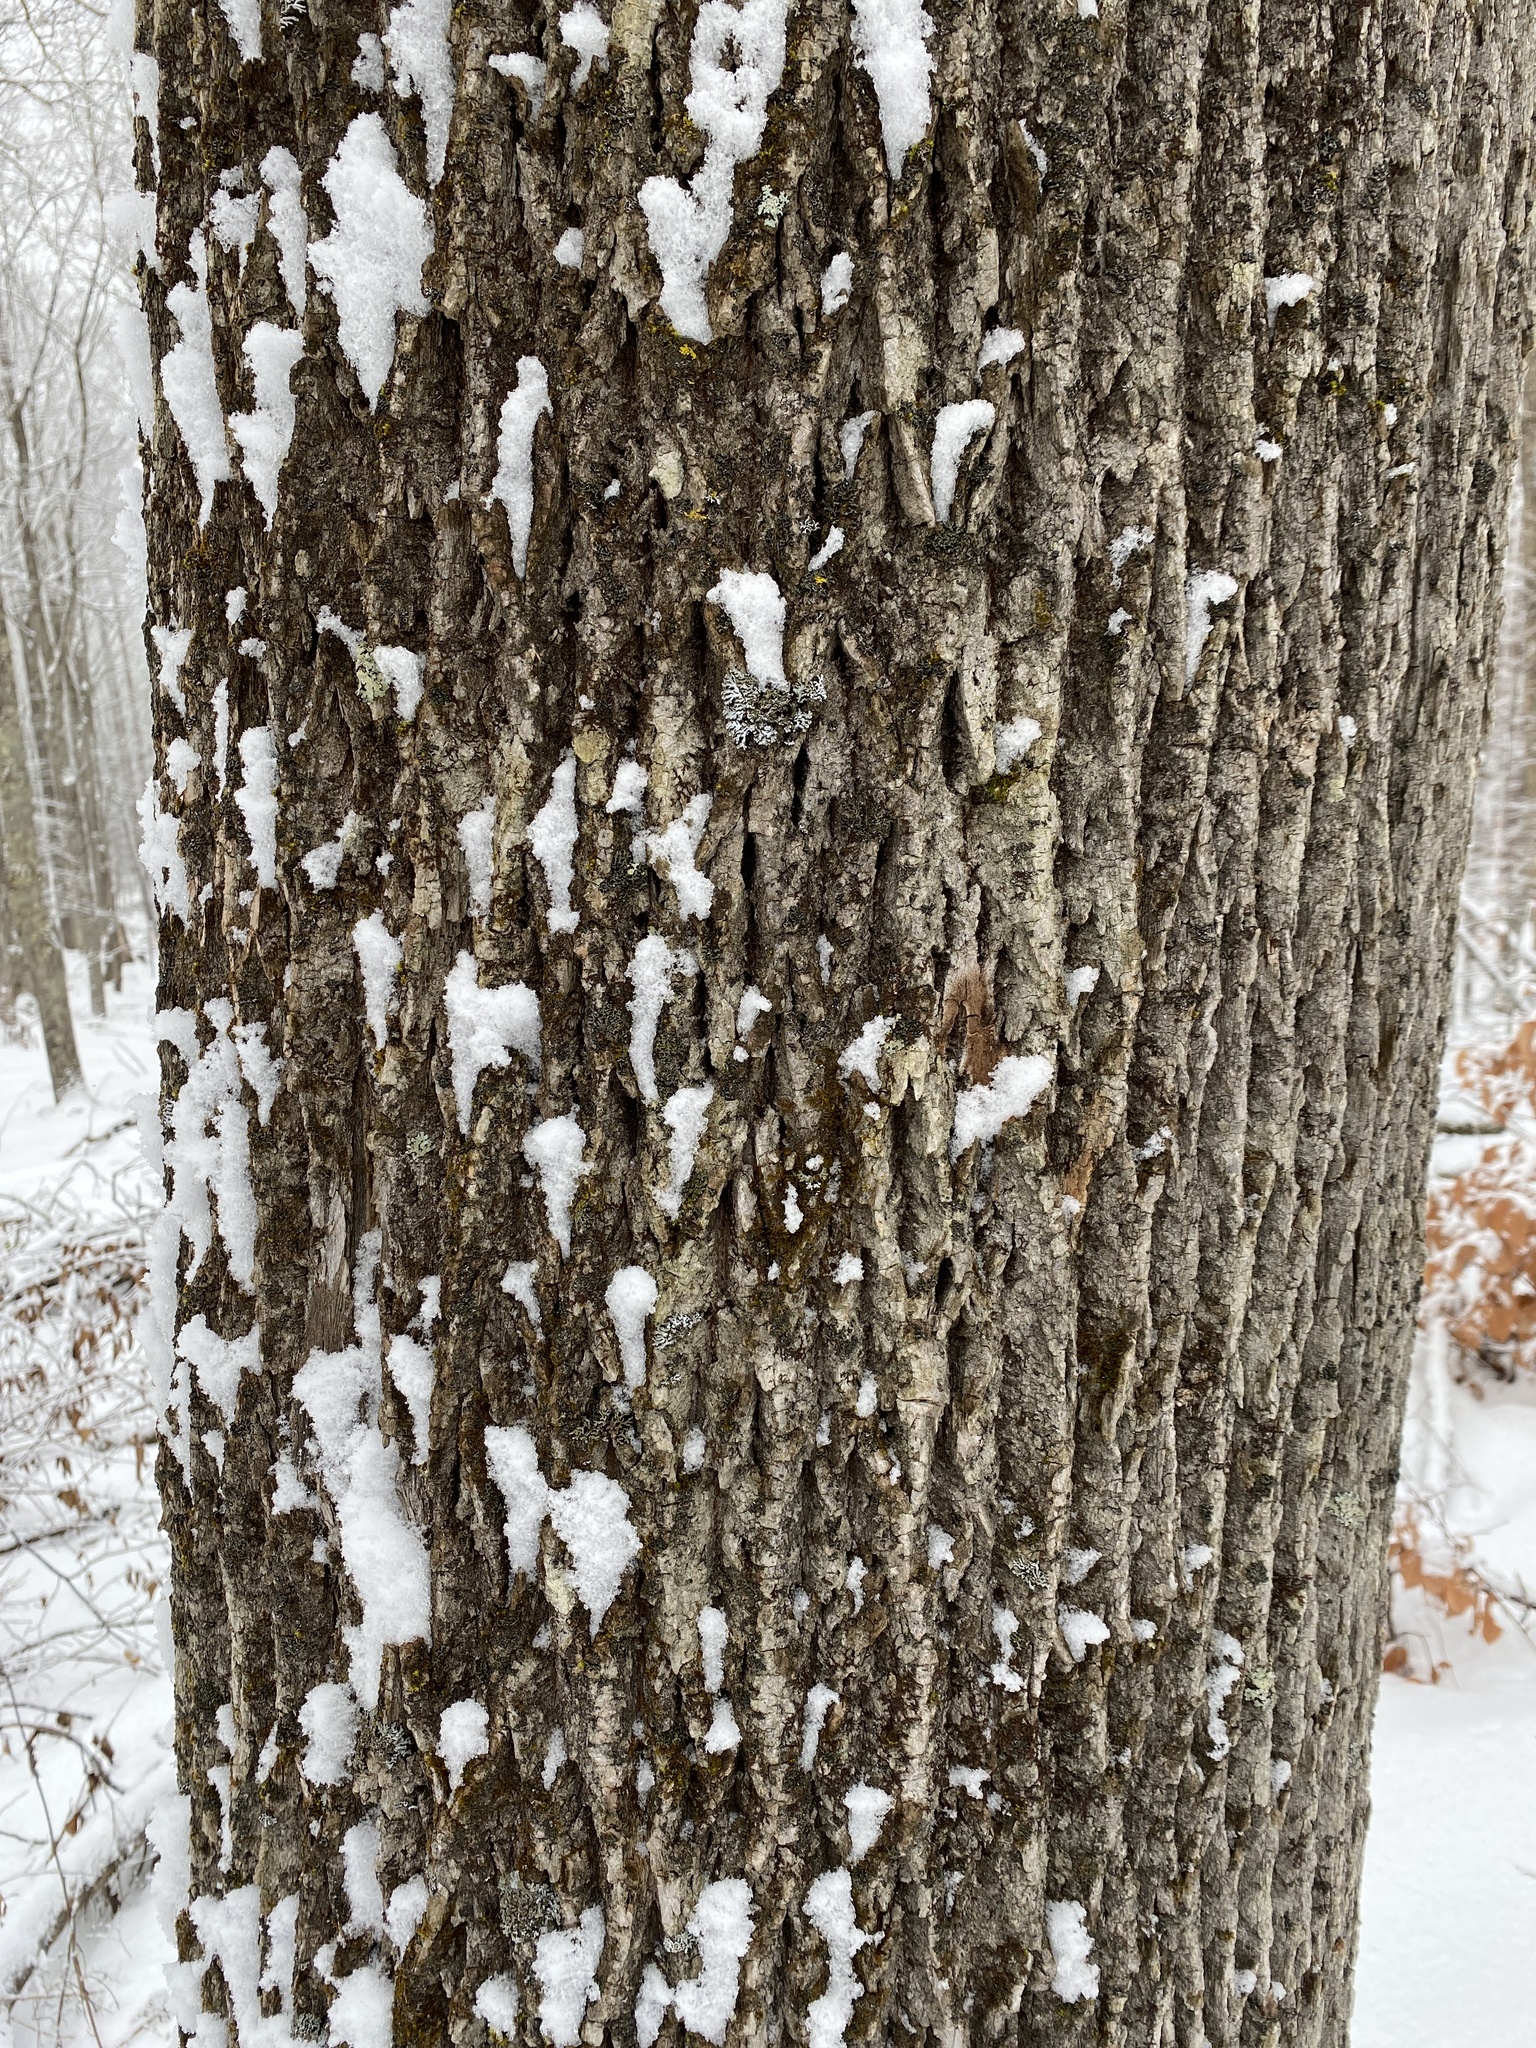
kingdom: Plantae
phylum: Tracheophyta
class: Magnoliopsida
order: Lamiales
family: Oleaceae
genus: Fraxinus
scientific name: Fraxinus americana
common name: White ash
